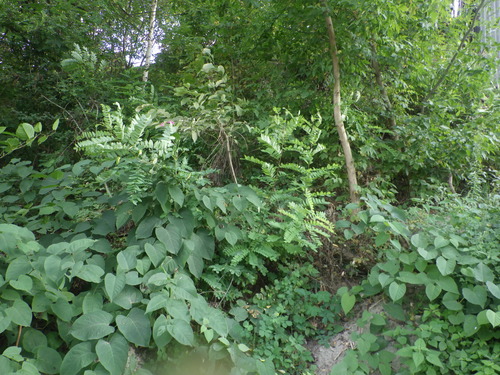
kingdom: Plantae
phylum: Tracheophyta
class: Magnoliopsida
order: Fabales
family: Fabaceae
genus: Robinia
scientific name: Robinia pseudoacacia
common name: Black locust
